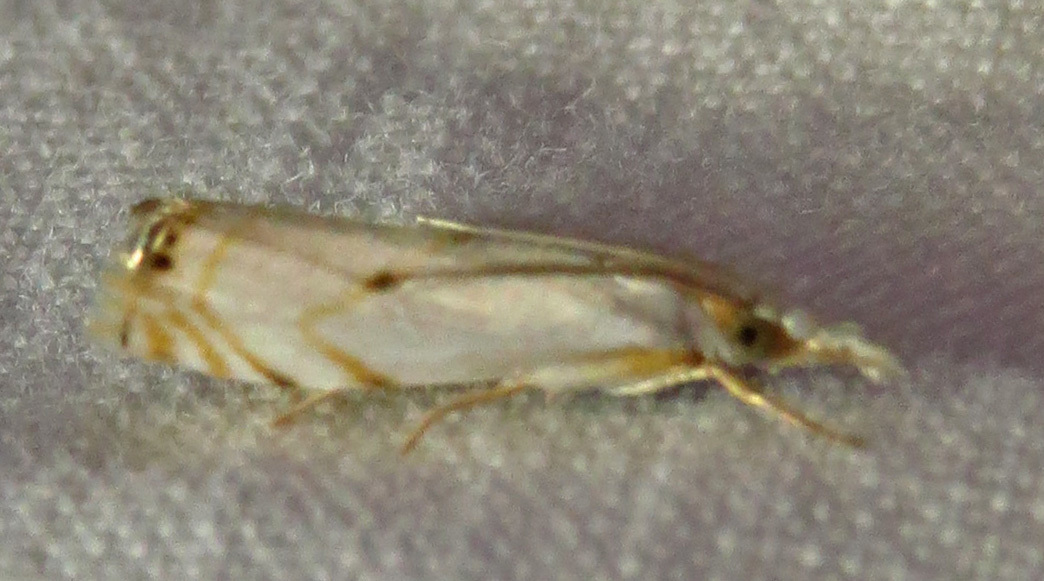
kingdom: Animalia
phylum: Arthropoda
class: Insecta
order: Lepidoptera
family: Crambidae
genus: Microcrambus
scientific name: Microcrambus biguttellus
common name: Gold-stripe grass-veneer moth
